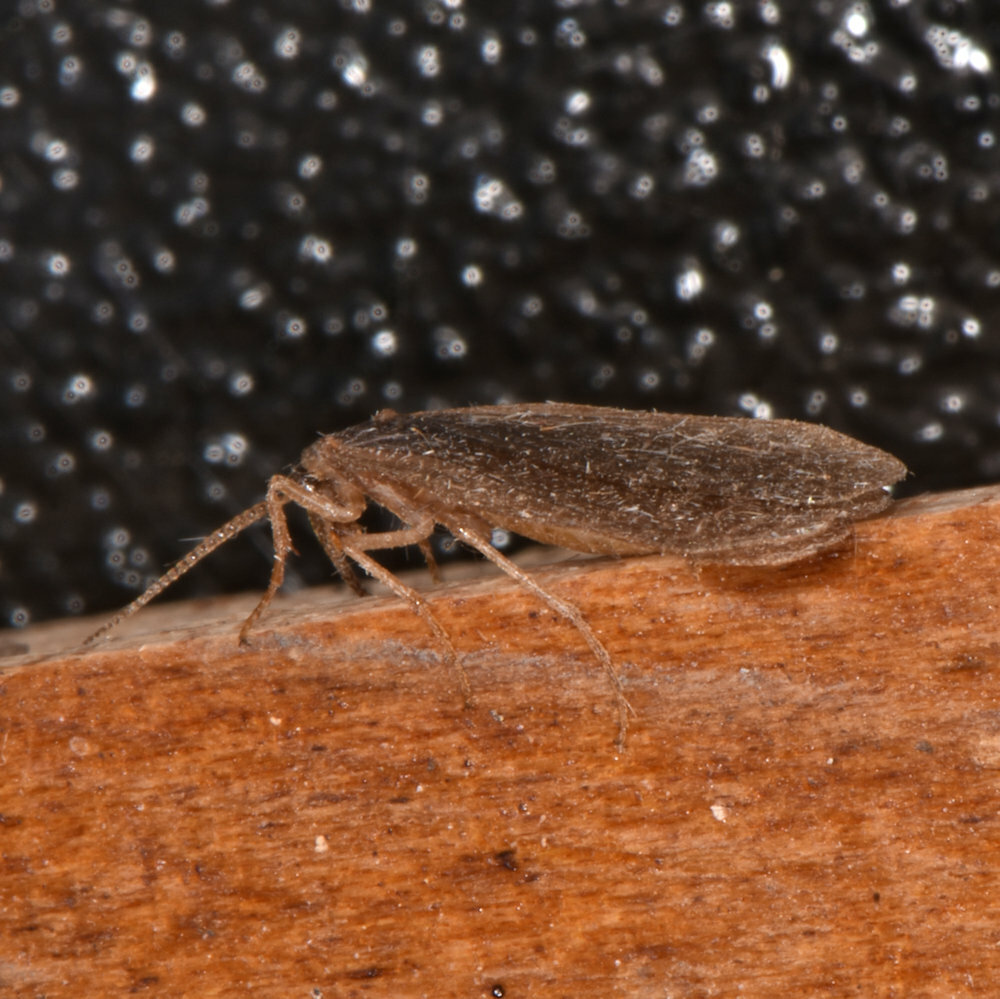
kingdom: Animalia
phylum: Arthropoda
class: Insecta
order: Mecoptera
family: Meropeidae
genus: Merope
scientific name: Merope tuber
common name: Forcepfly
